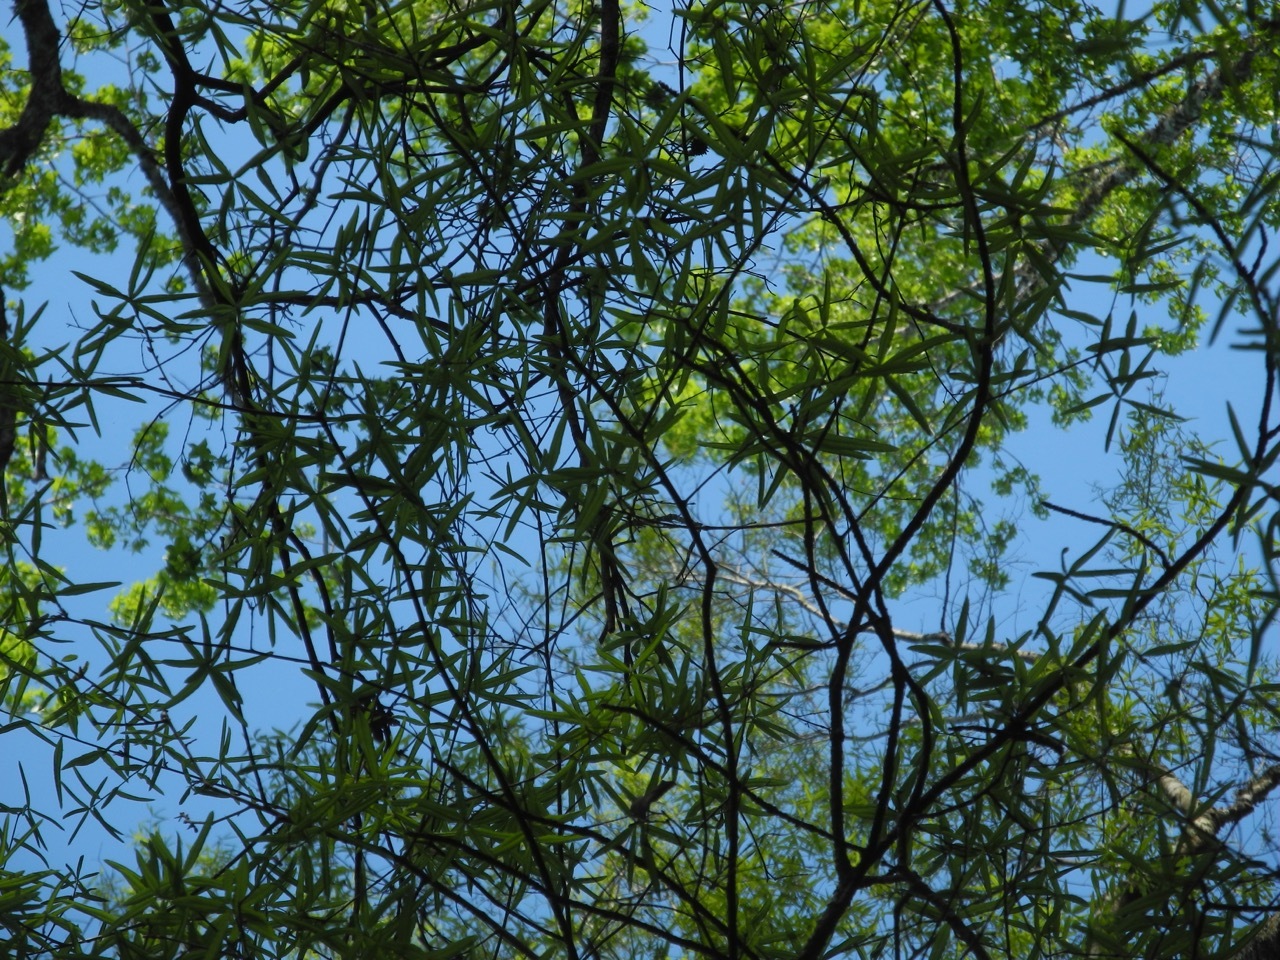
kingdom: Plantae
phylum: Tracheophyta
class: Magnoliopsida
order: Fagales
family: Fagaceae
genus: Quercus
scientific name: Quercus phellos
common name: Willow oak
